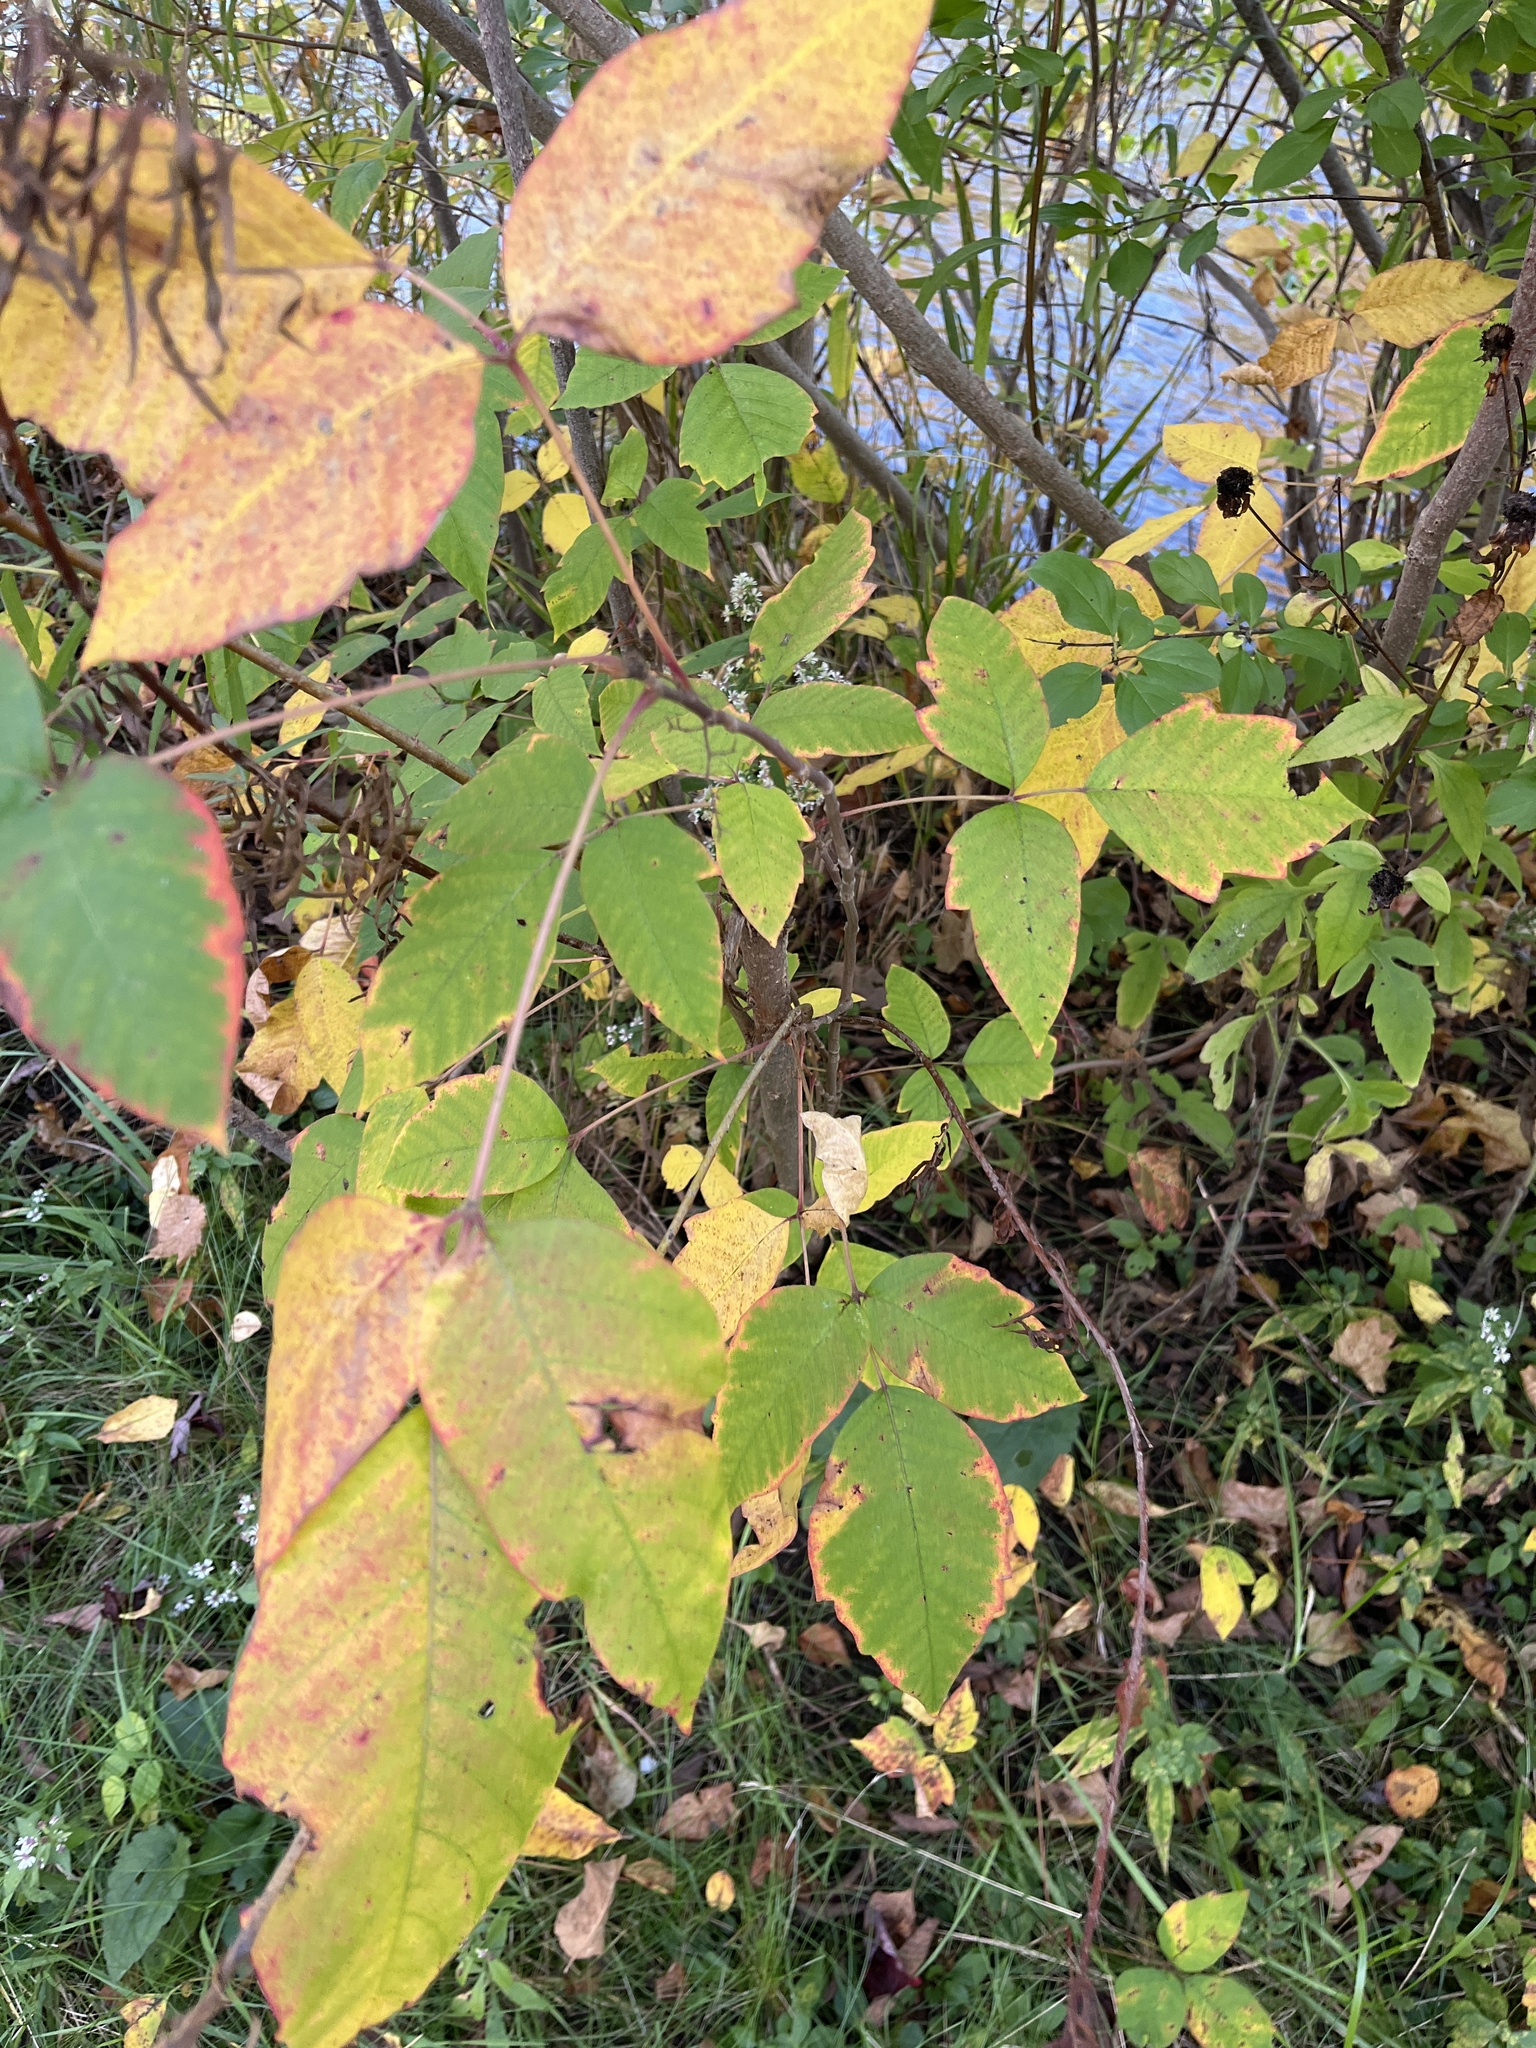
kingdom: Plantae
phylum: Tracheophyta
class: Magnoliopsida
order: Sapindales
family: Anacardiaceae
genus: Toxicodendron
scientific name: Toxicodendron radicans
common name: Poison ivy
